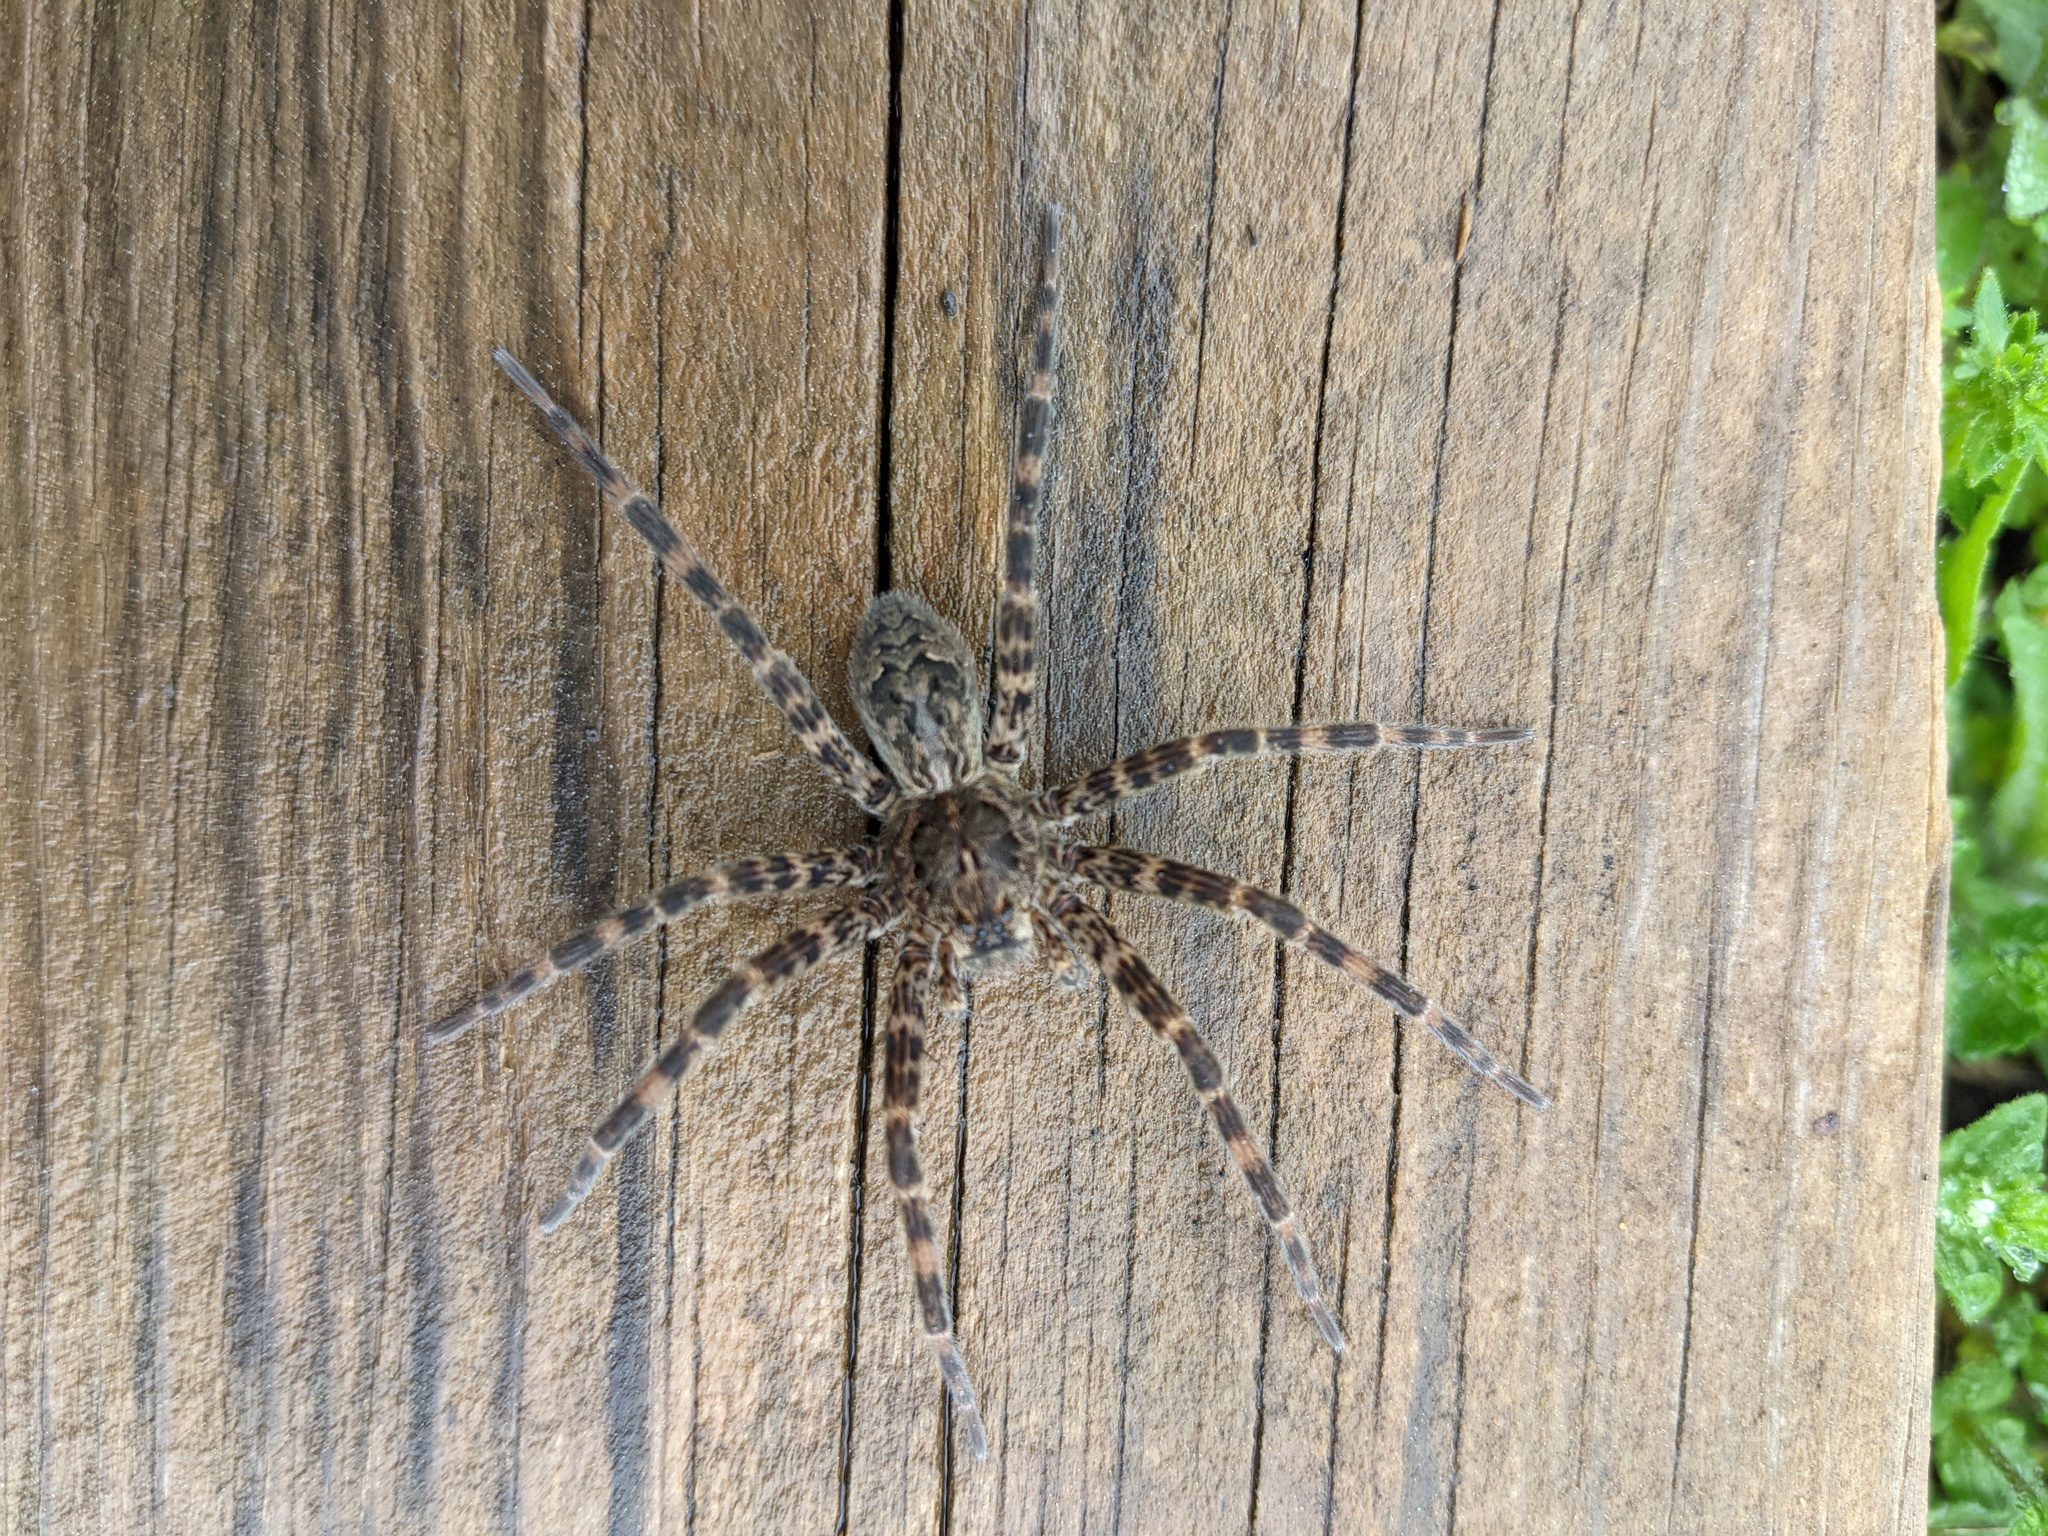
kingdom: Animalia
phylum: Arthropoda
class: Arachnida
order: Araneae
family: Pisauridae
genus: Dolomedes
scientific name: Dolomedes tenebrosus
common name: Dark fishing spider
